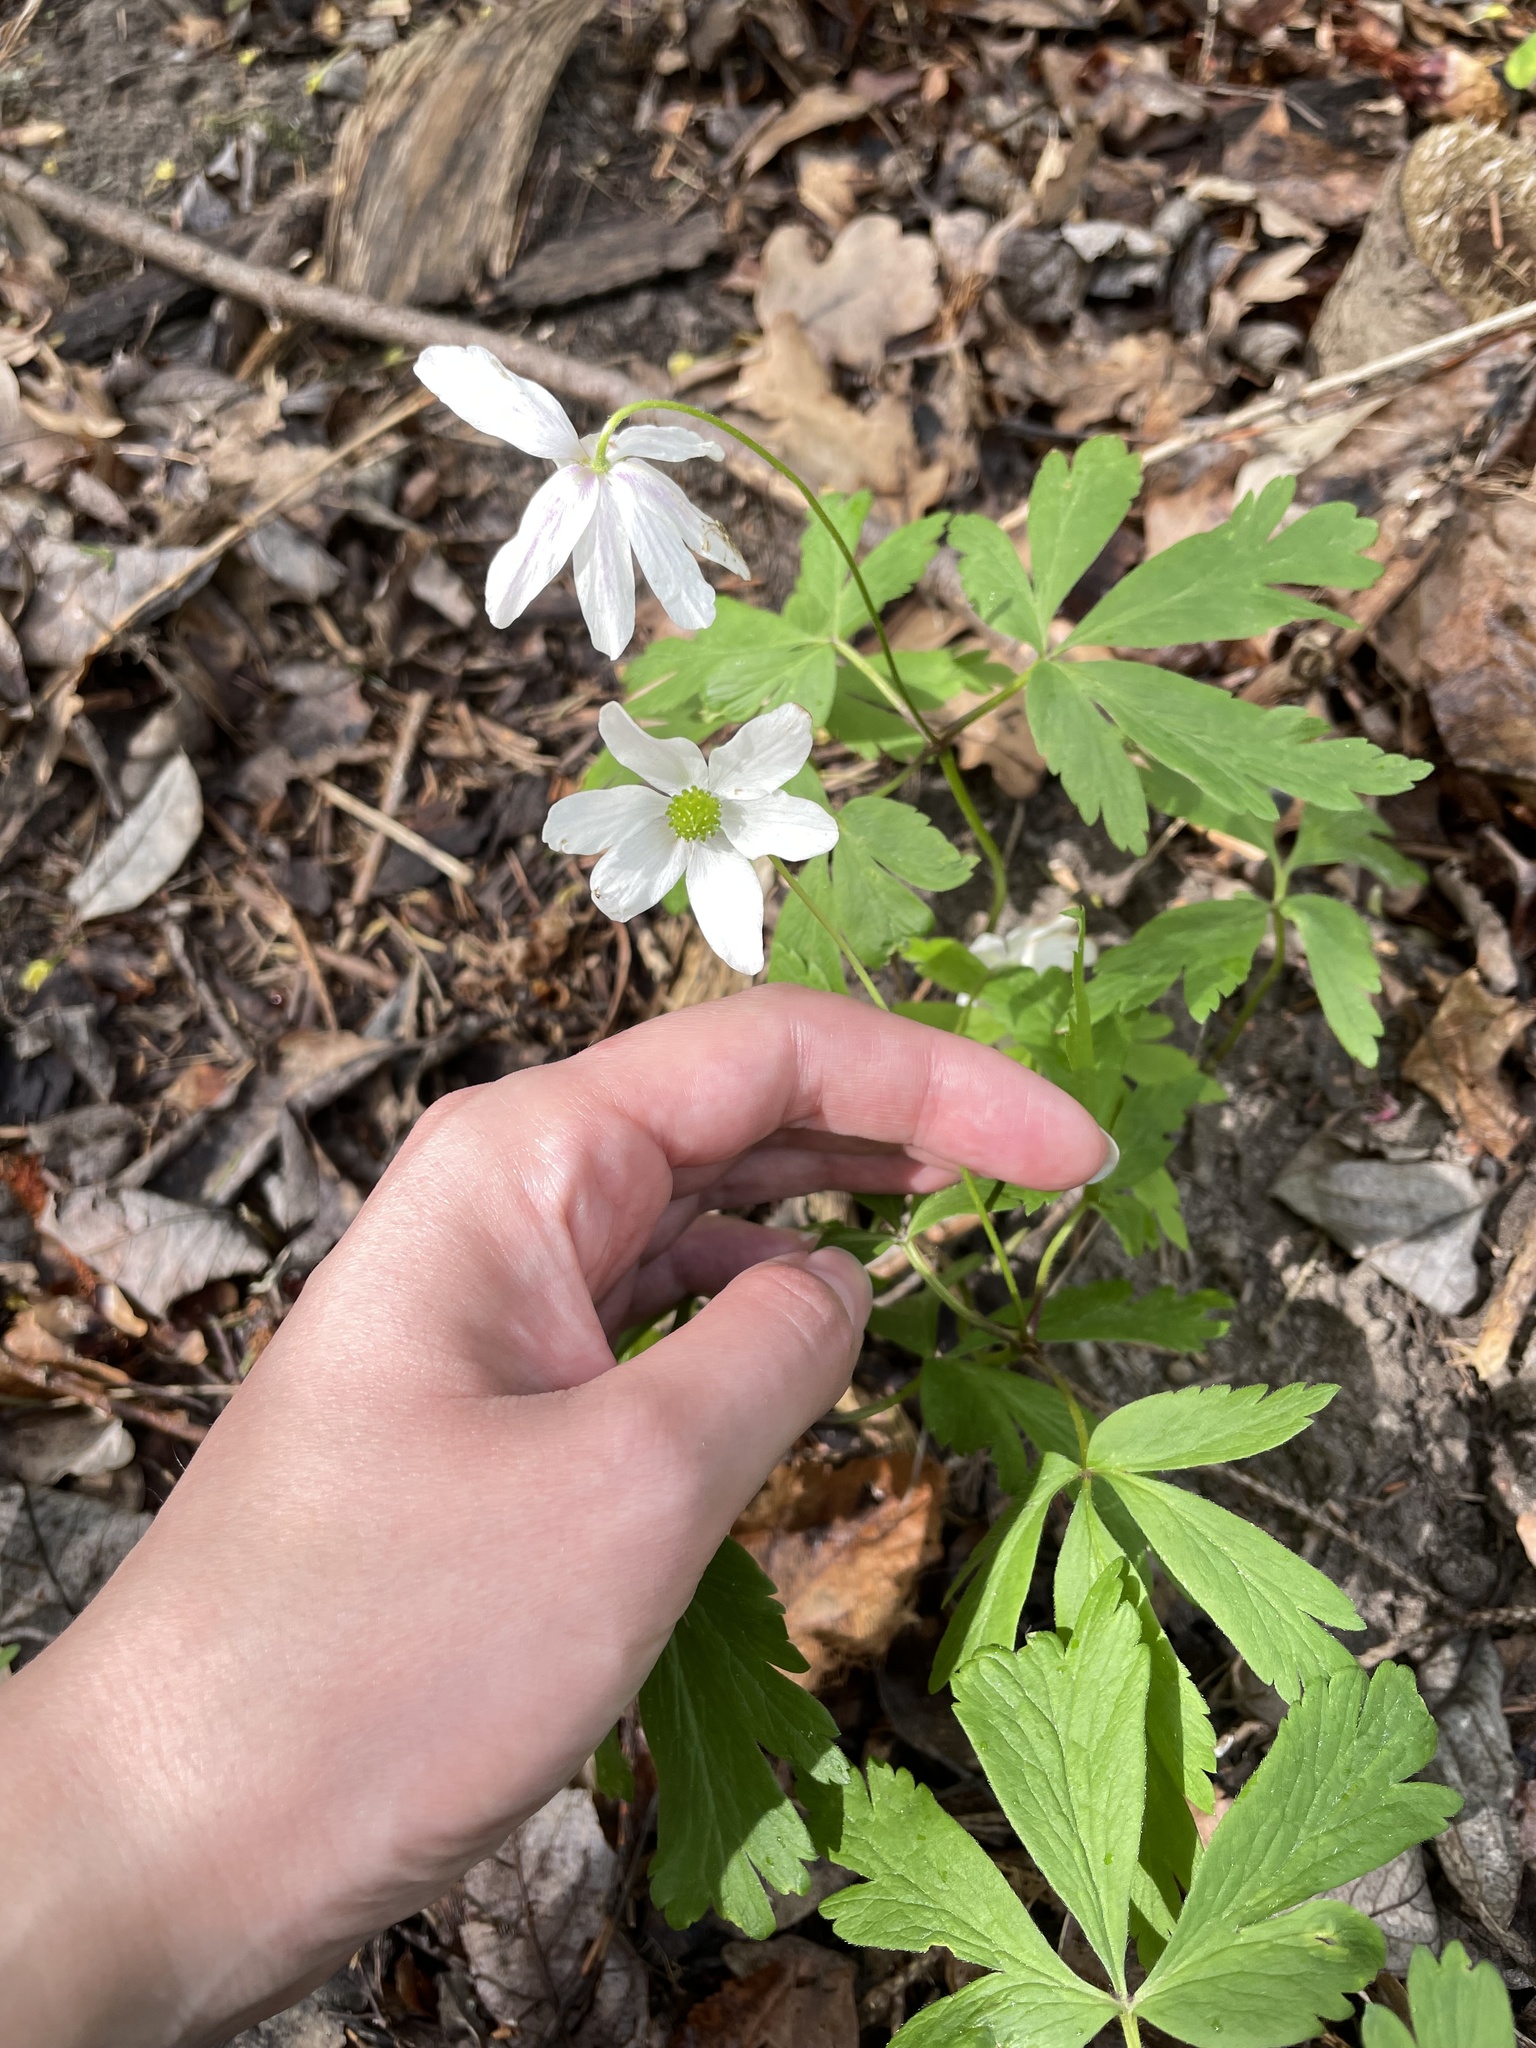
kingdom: Plantae
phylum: Tracheophyta
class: Magnoliopsida
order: Ranunculales
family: Ranunculaceae
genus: Anemone
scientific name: Anemone nemorosa
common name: Wood anemone
